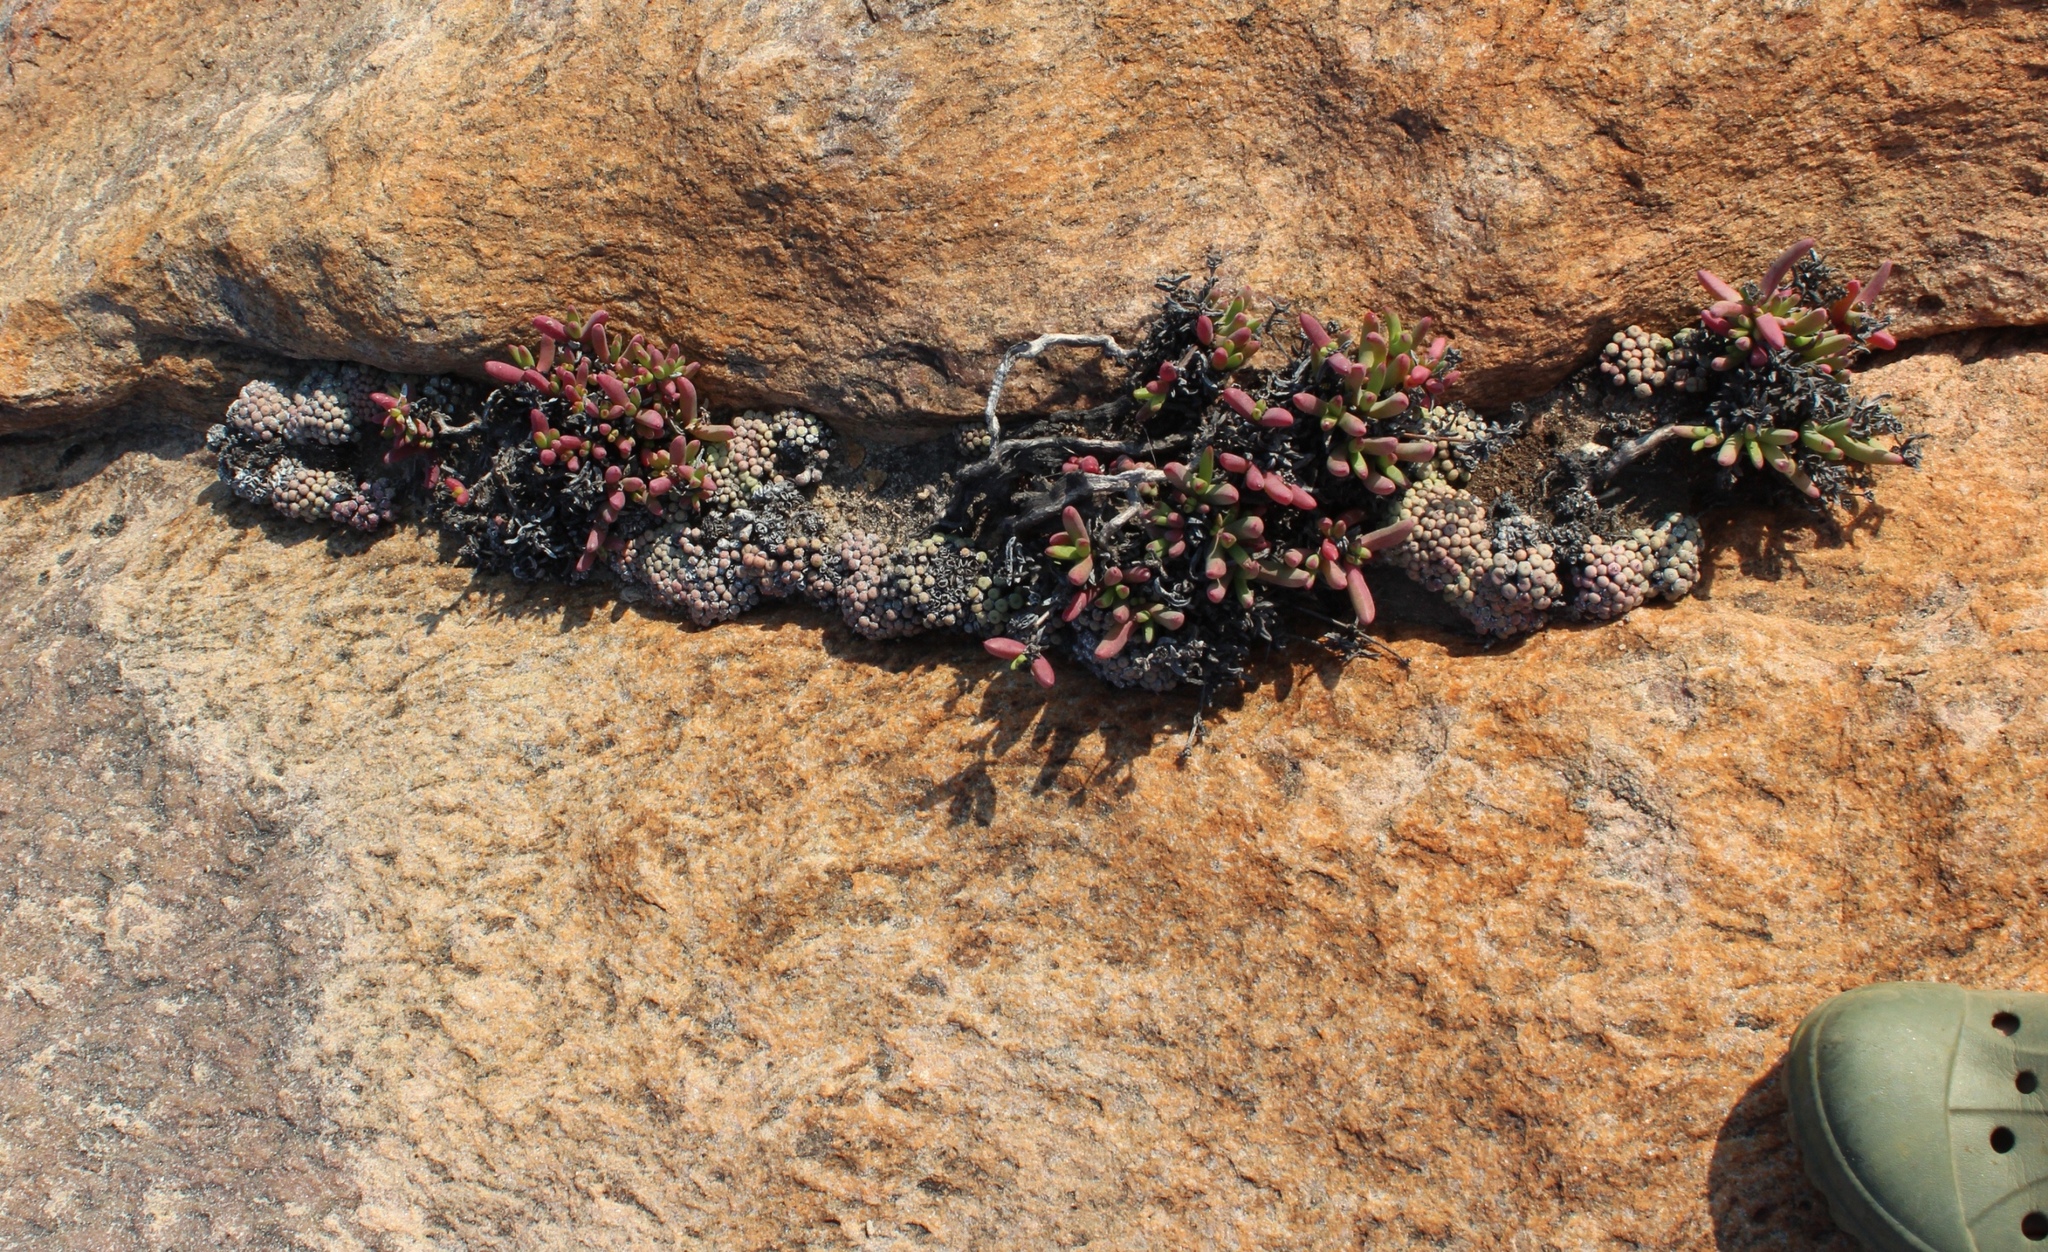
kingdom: Plantae
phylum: Tracheophyta
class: Magnoliopsida
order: Caryophyllales
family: Aizoaceae
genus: Conophytum
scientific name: Conophytum minutum
